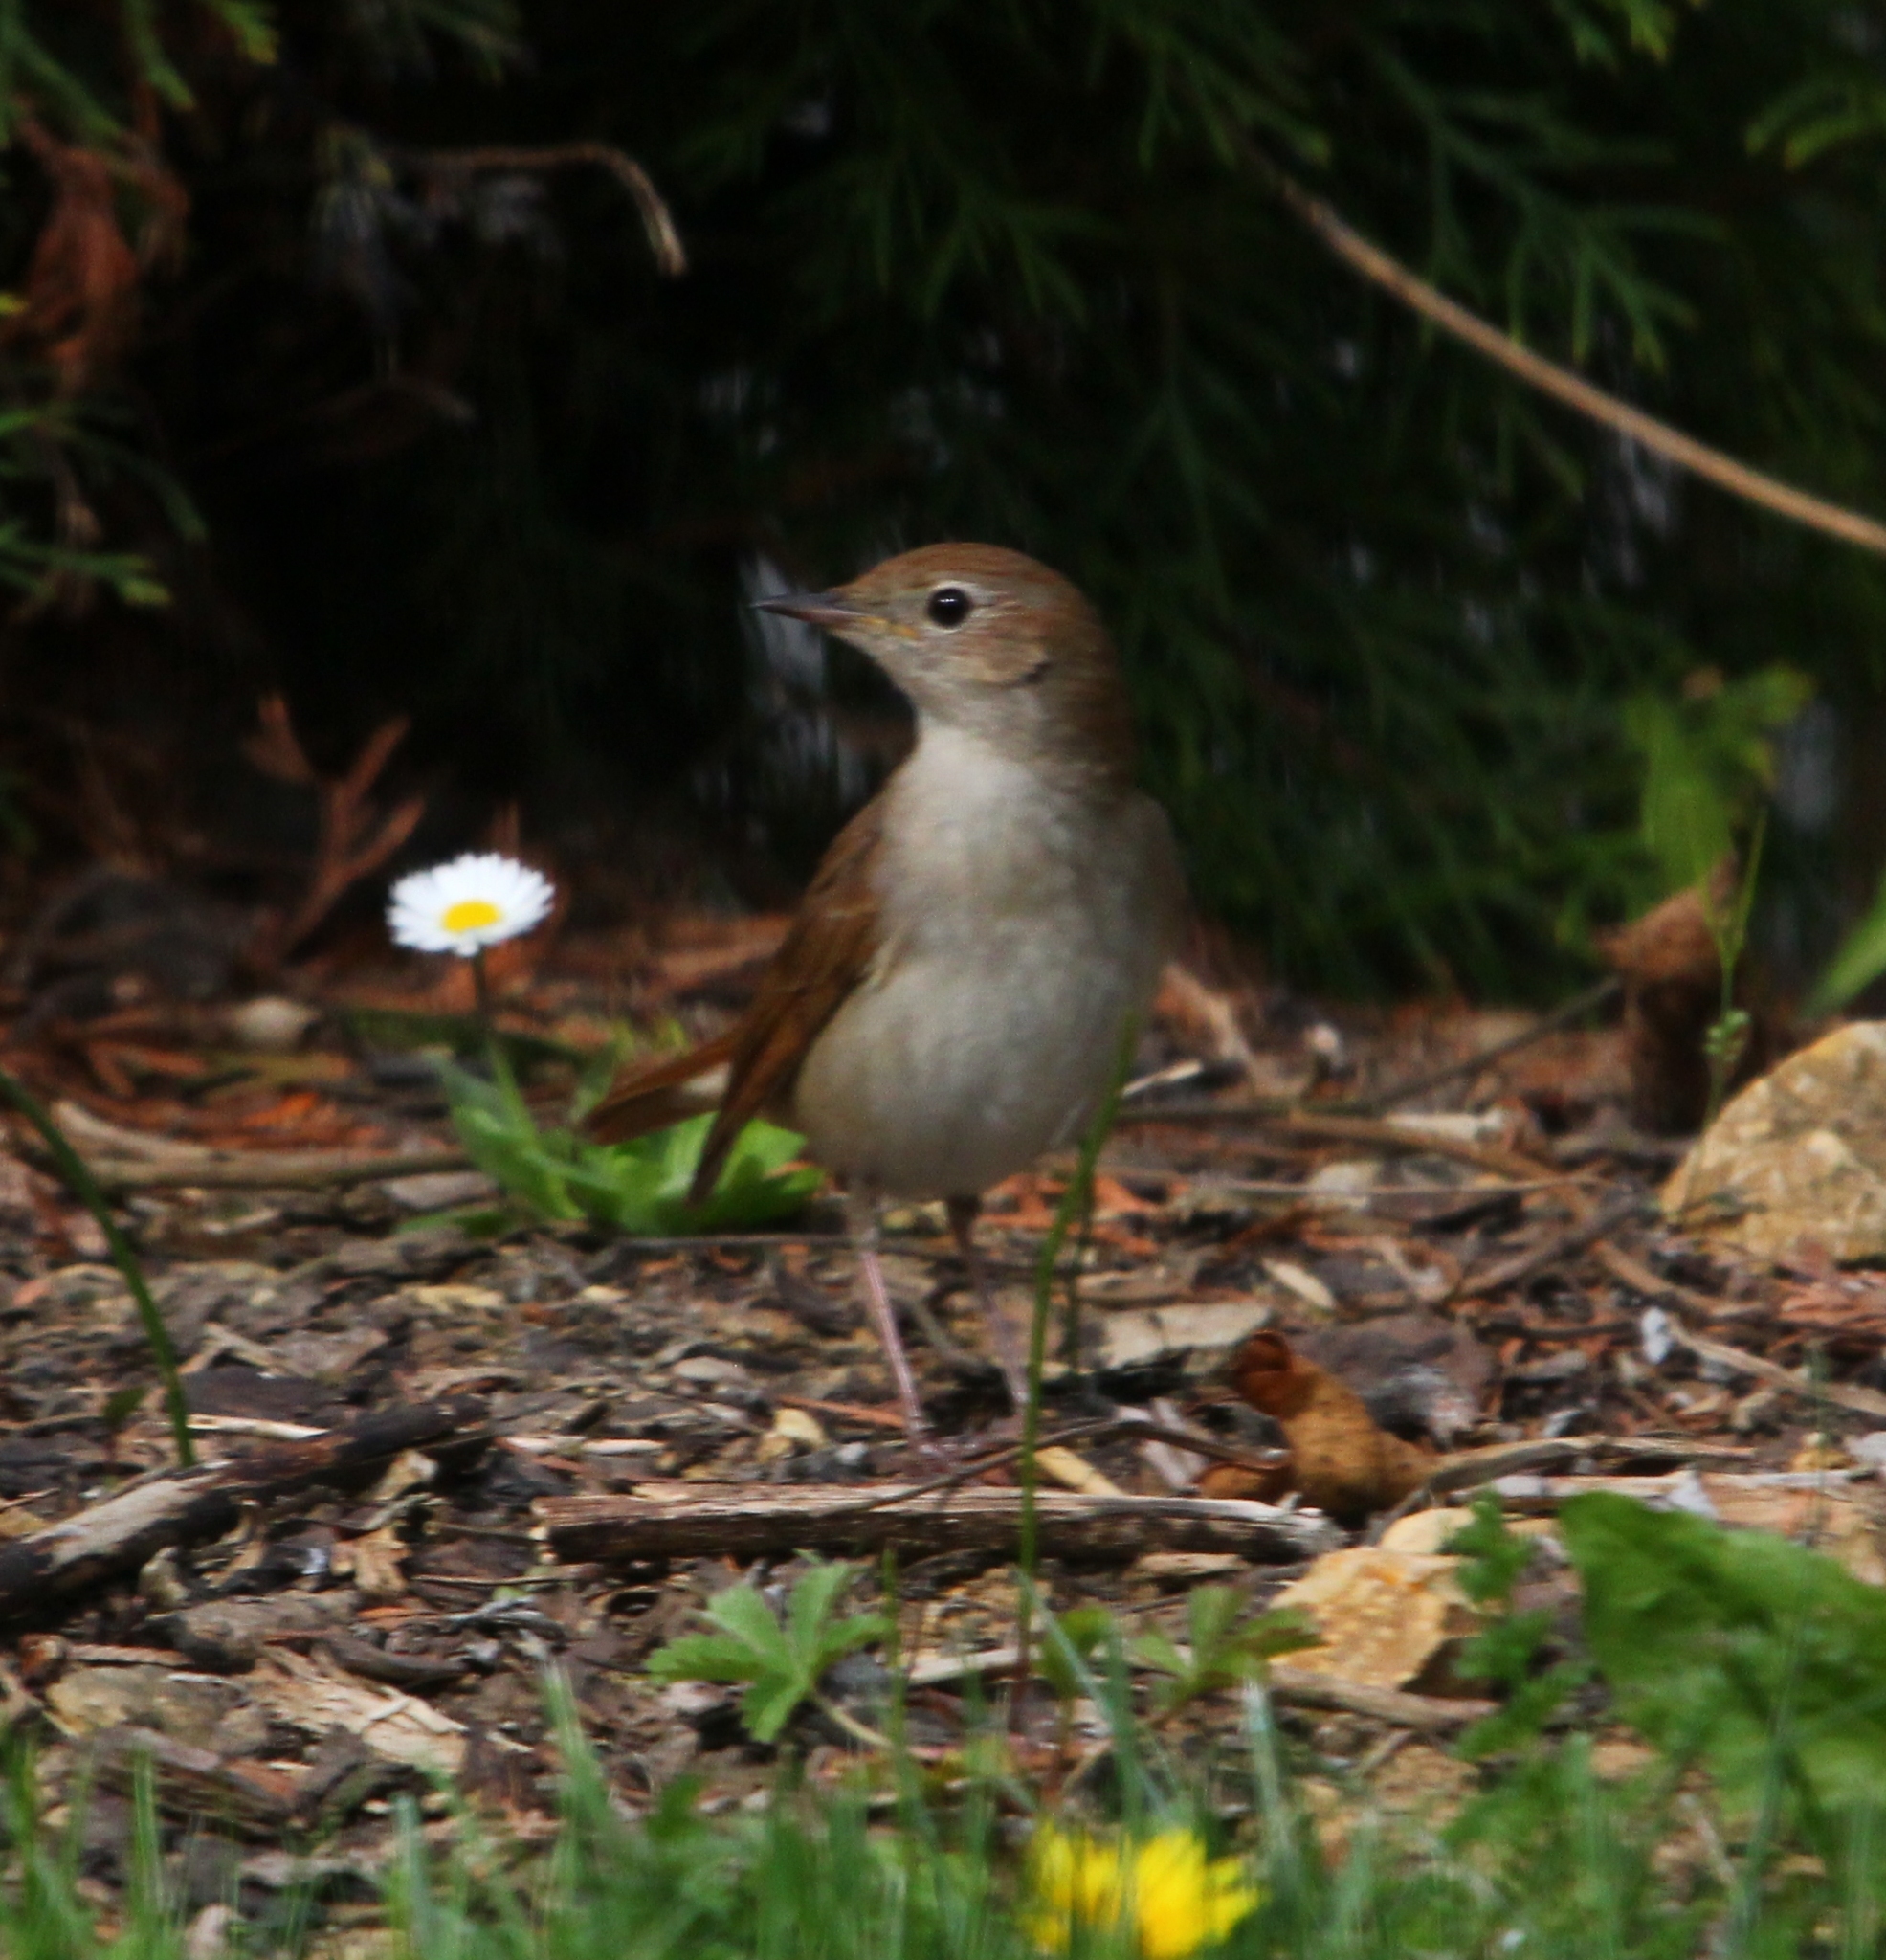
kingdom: Animalia
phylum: Chordata
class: Aves
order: Passeriformes
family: Muscicapidae
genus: Luscinia
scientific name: Luscinia megarhynchos
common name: Common nightingale
